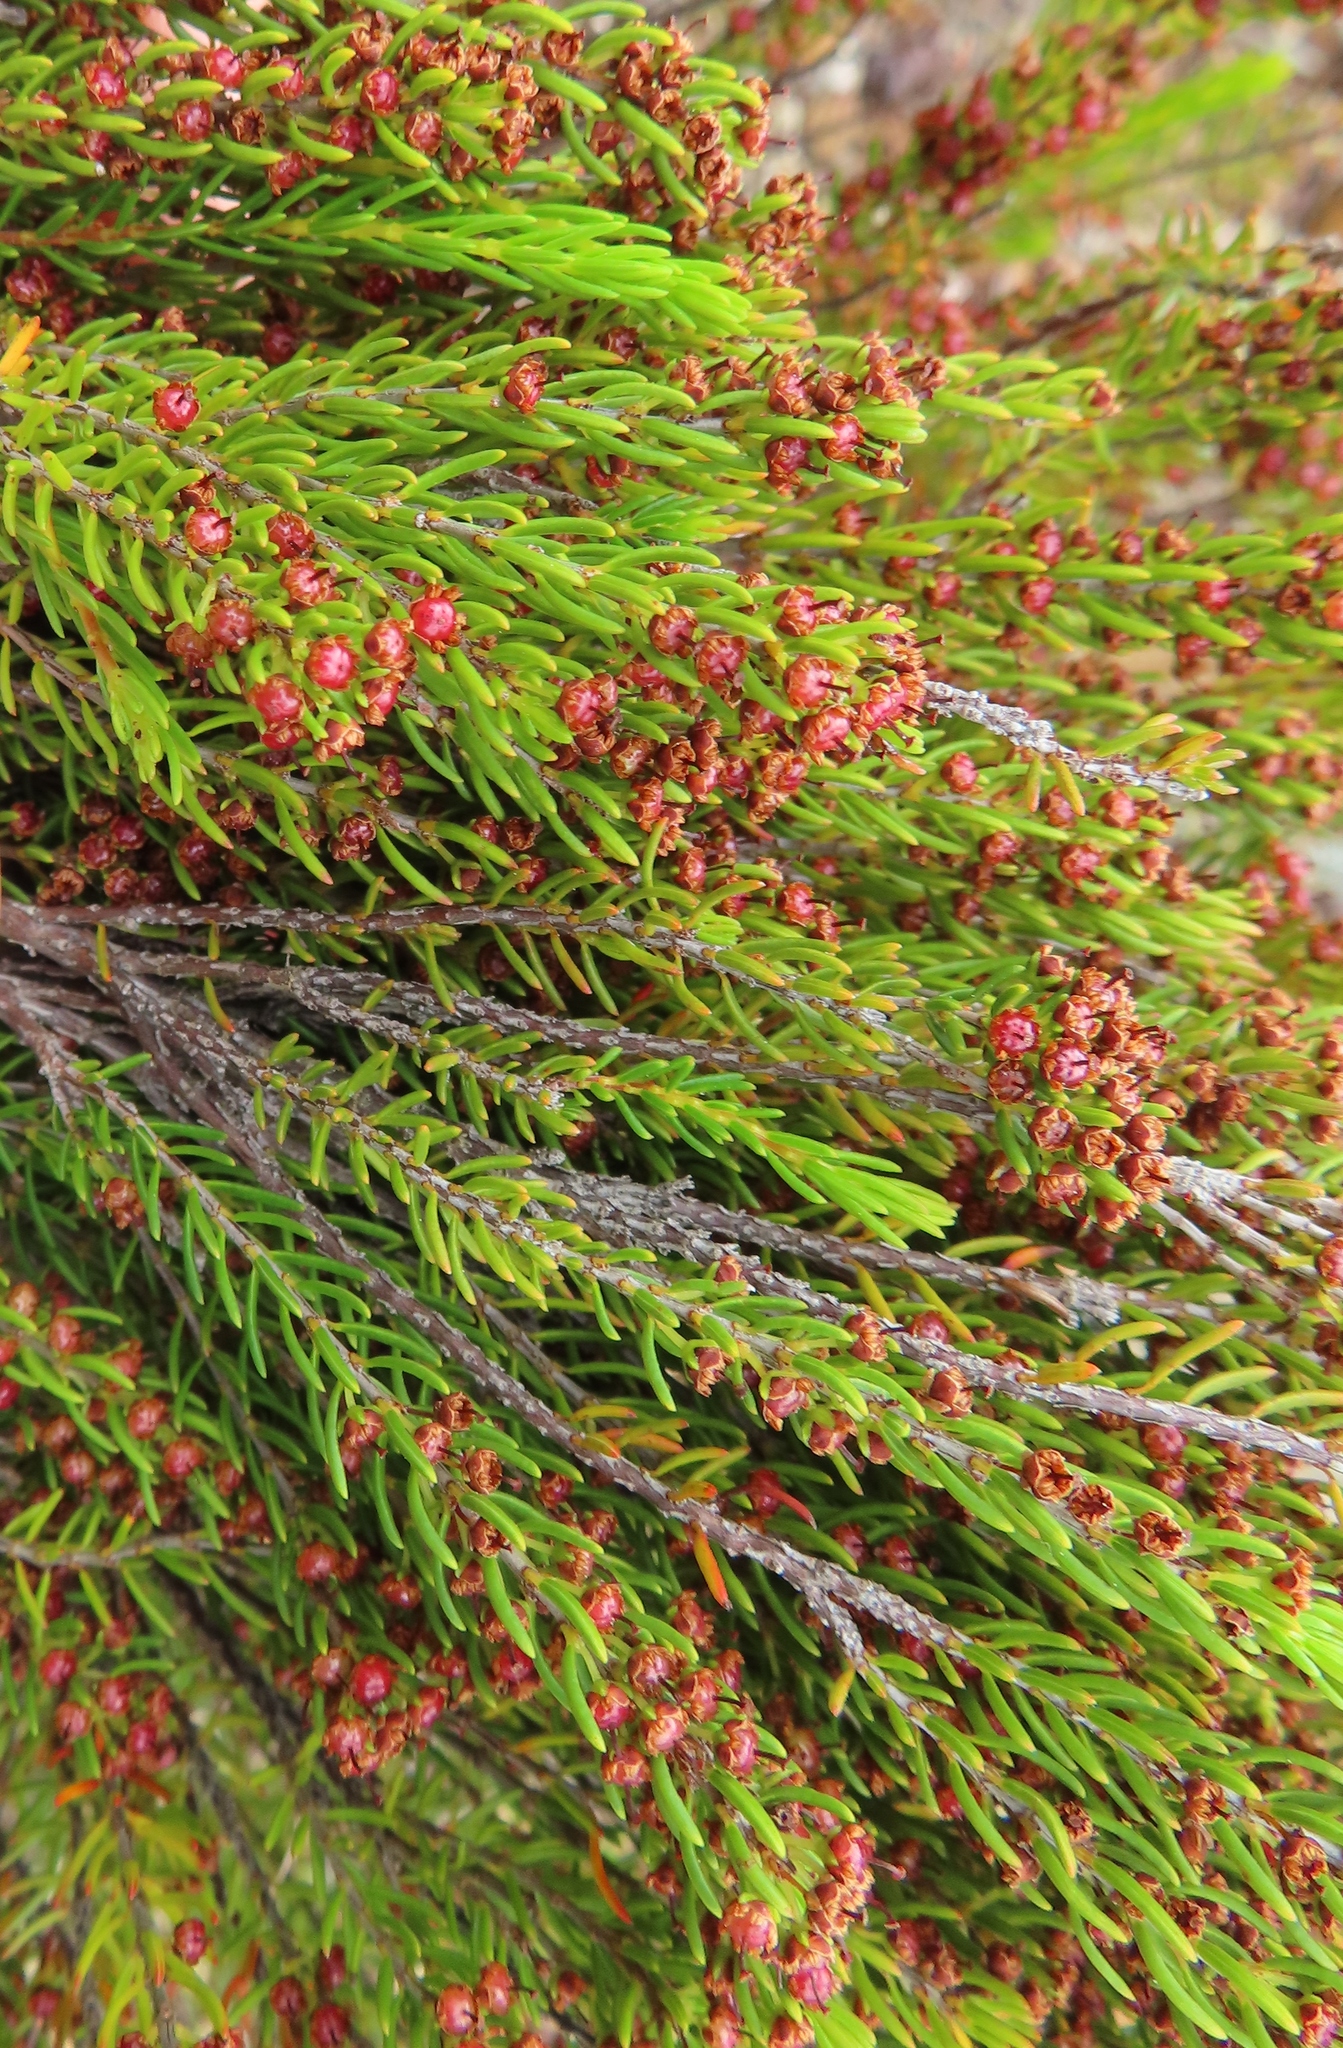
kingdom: Plantae
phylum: Tracheophyta
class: Magnoliopsida
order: Ericales
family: Ericaceae
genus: Erica
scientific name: Erica coarctata
